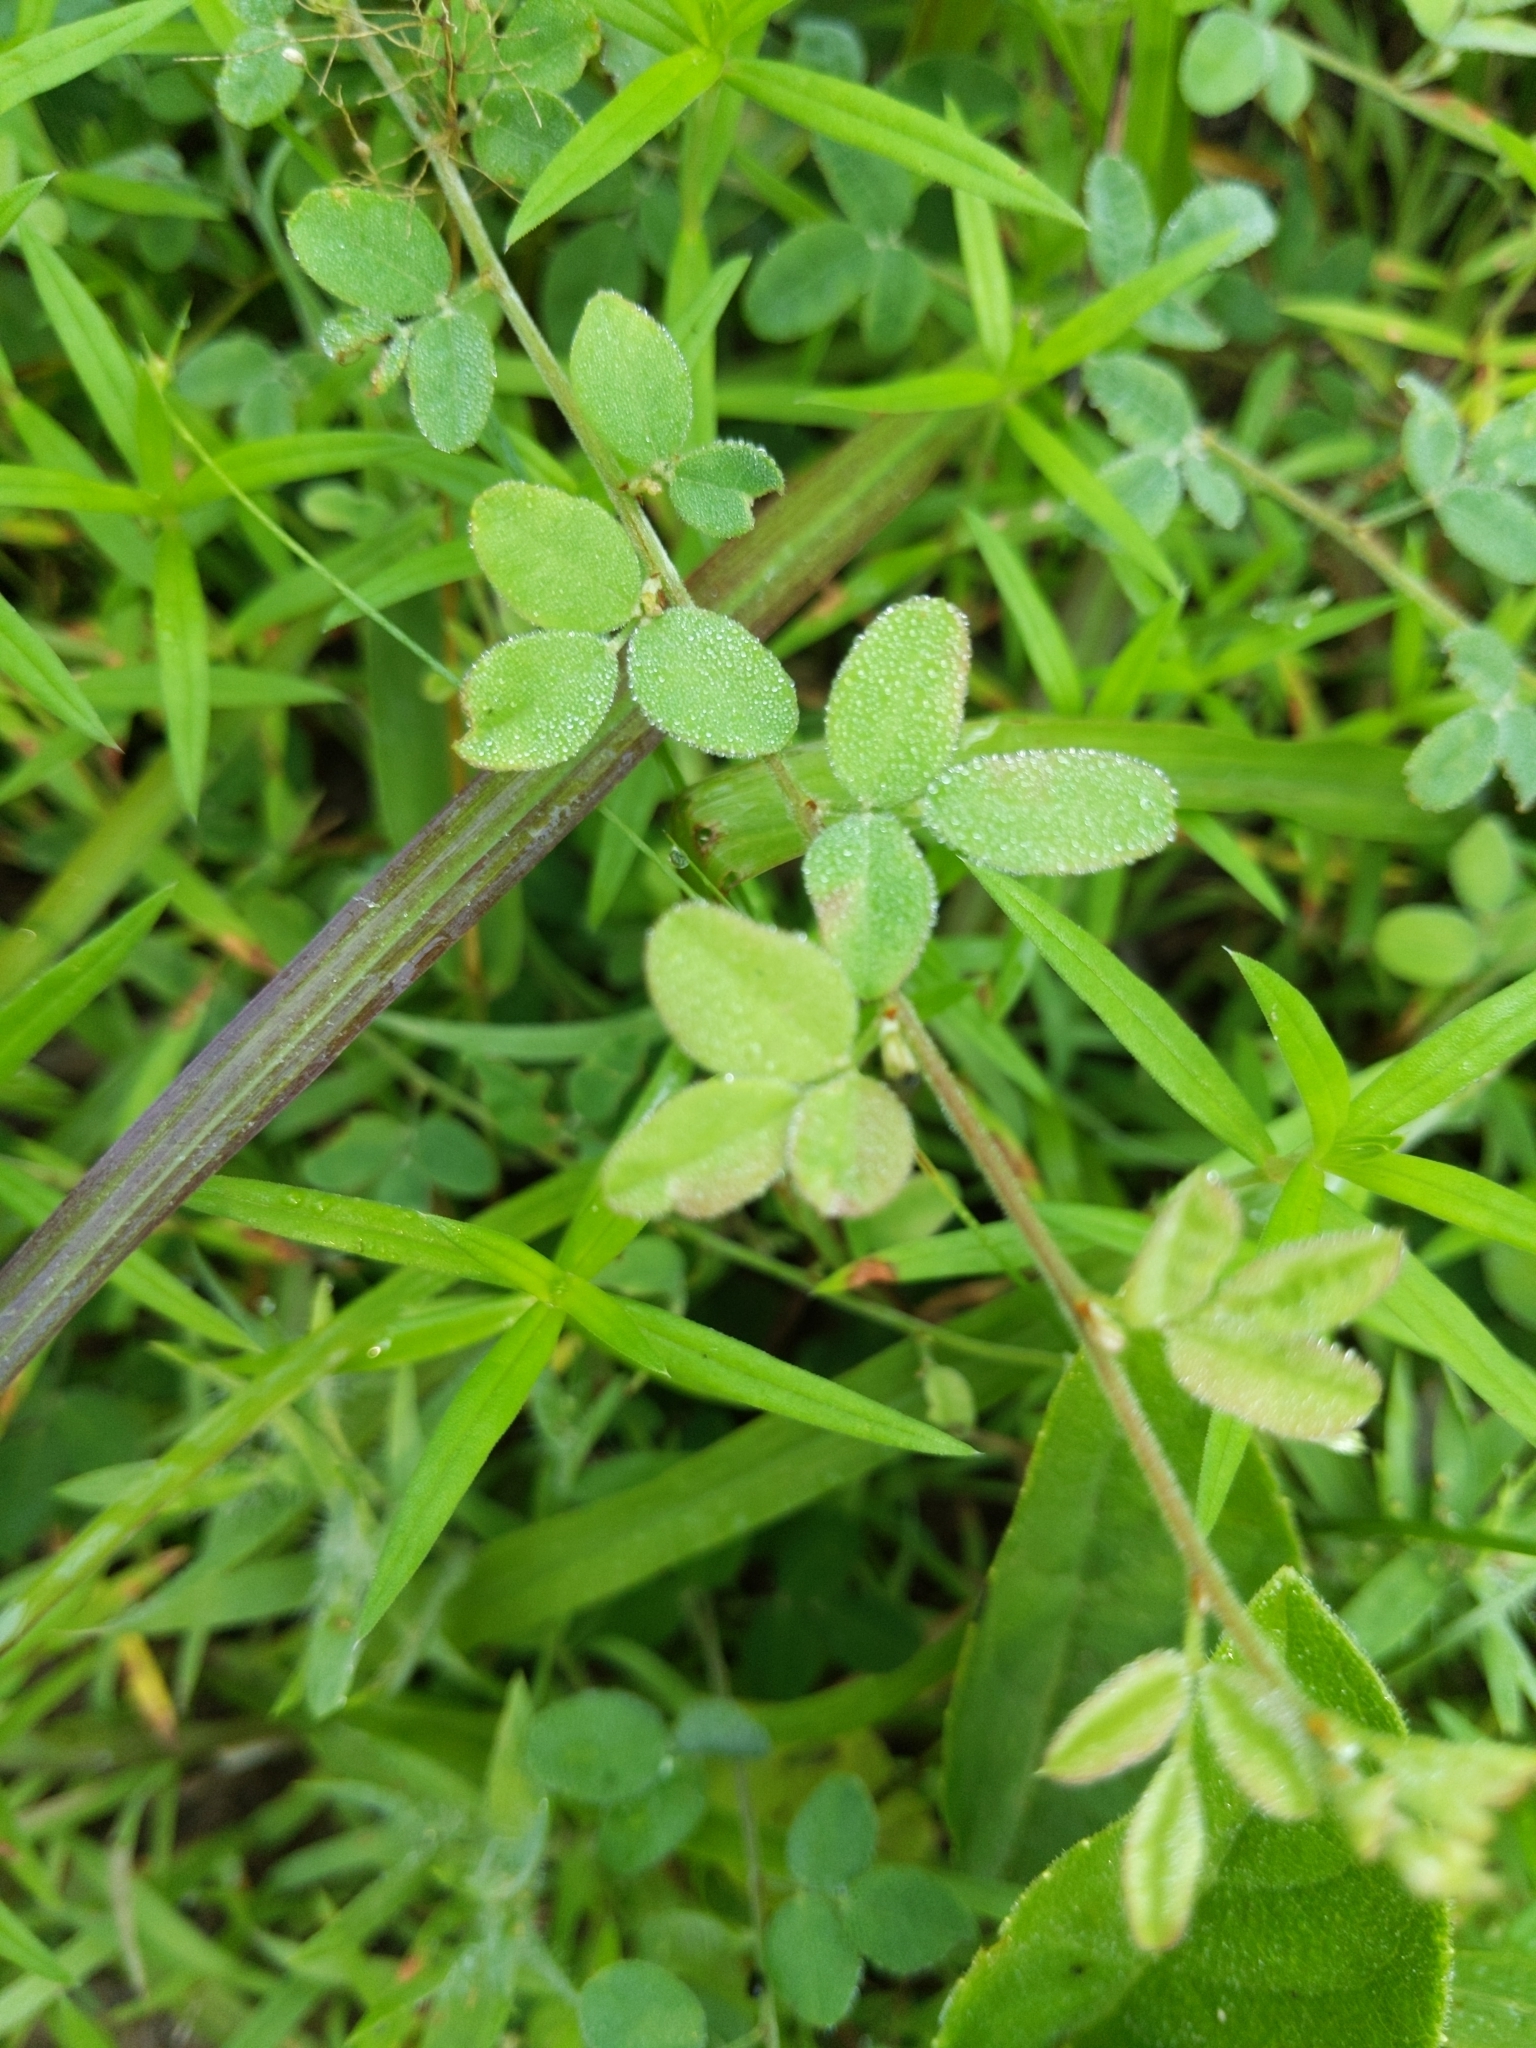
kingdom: Plantae
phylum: Tracheophyta
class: Magnoliopsida
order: Fabales
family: Fabaceae
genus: Lespedeza
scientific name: Lespedeza procumbens
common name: Downy trailing bush-clover
